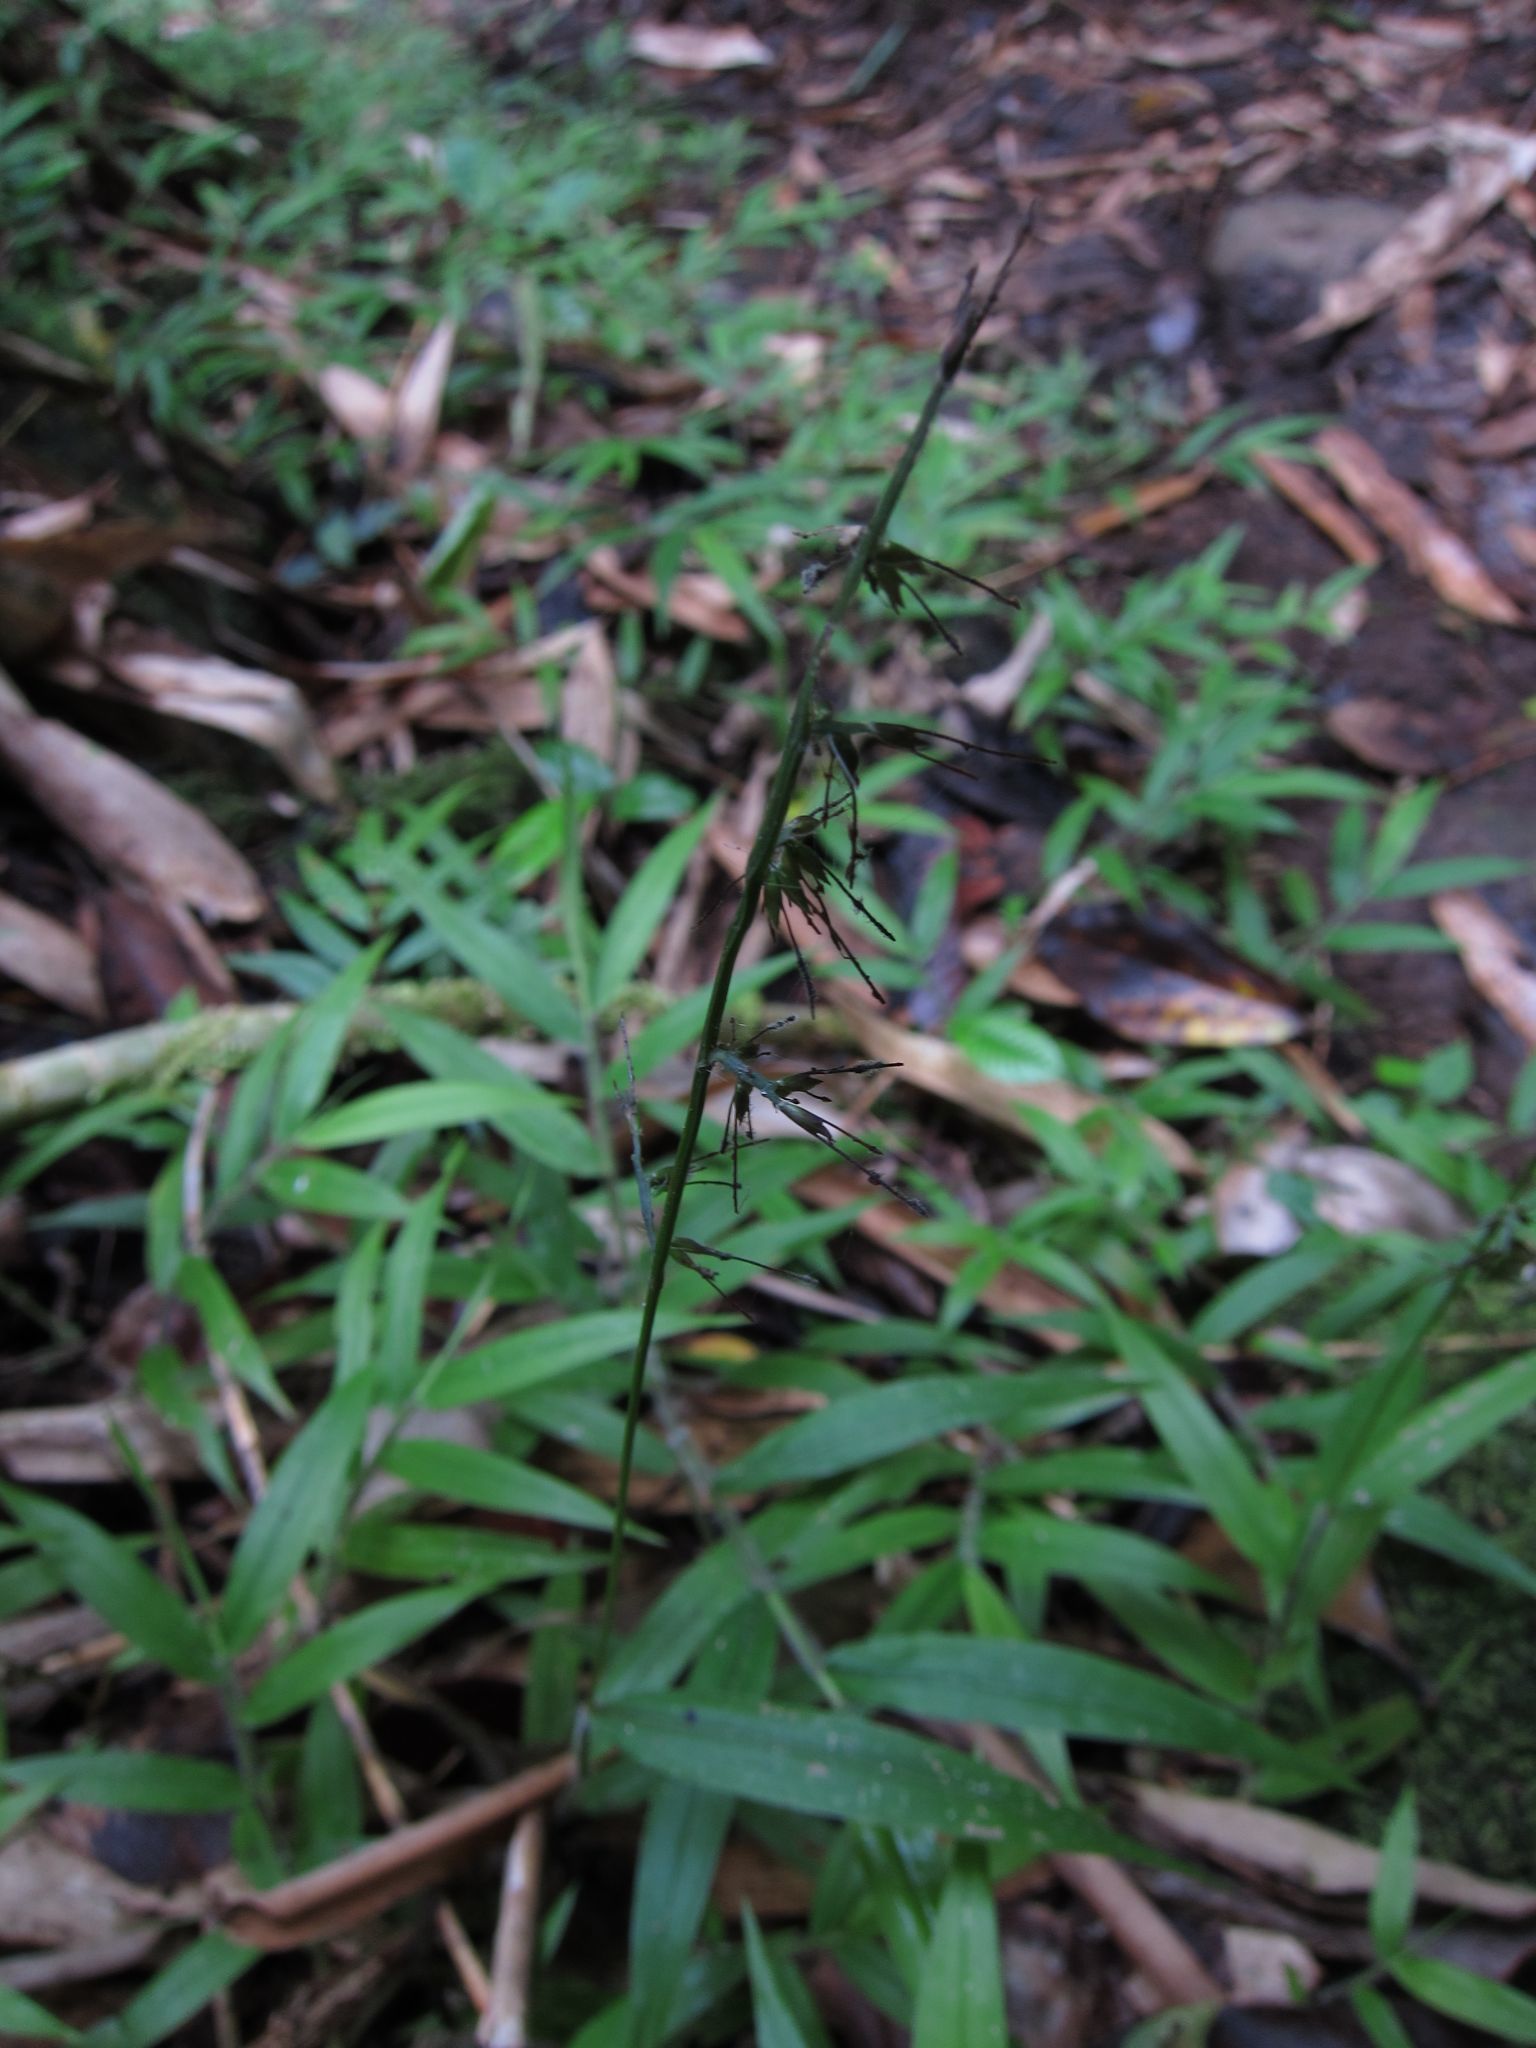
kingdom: Plantae
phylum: Tracheophyta
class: Liliopsida
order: Poales
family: Poaceae
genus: Oplismenus
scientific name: Oplismenus hirtellus
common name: Basketgrass
